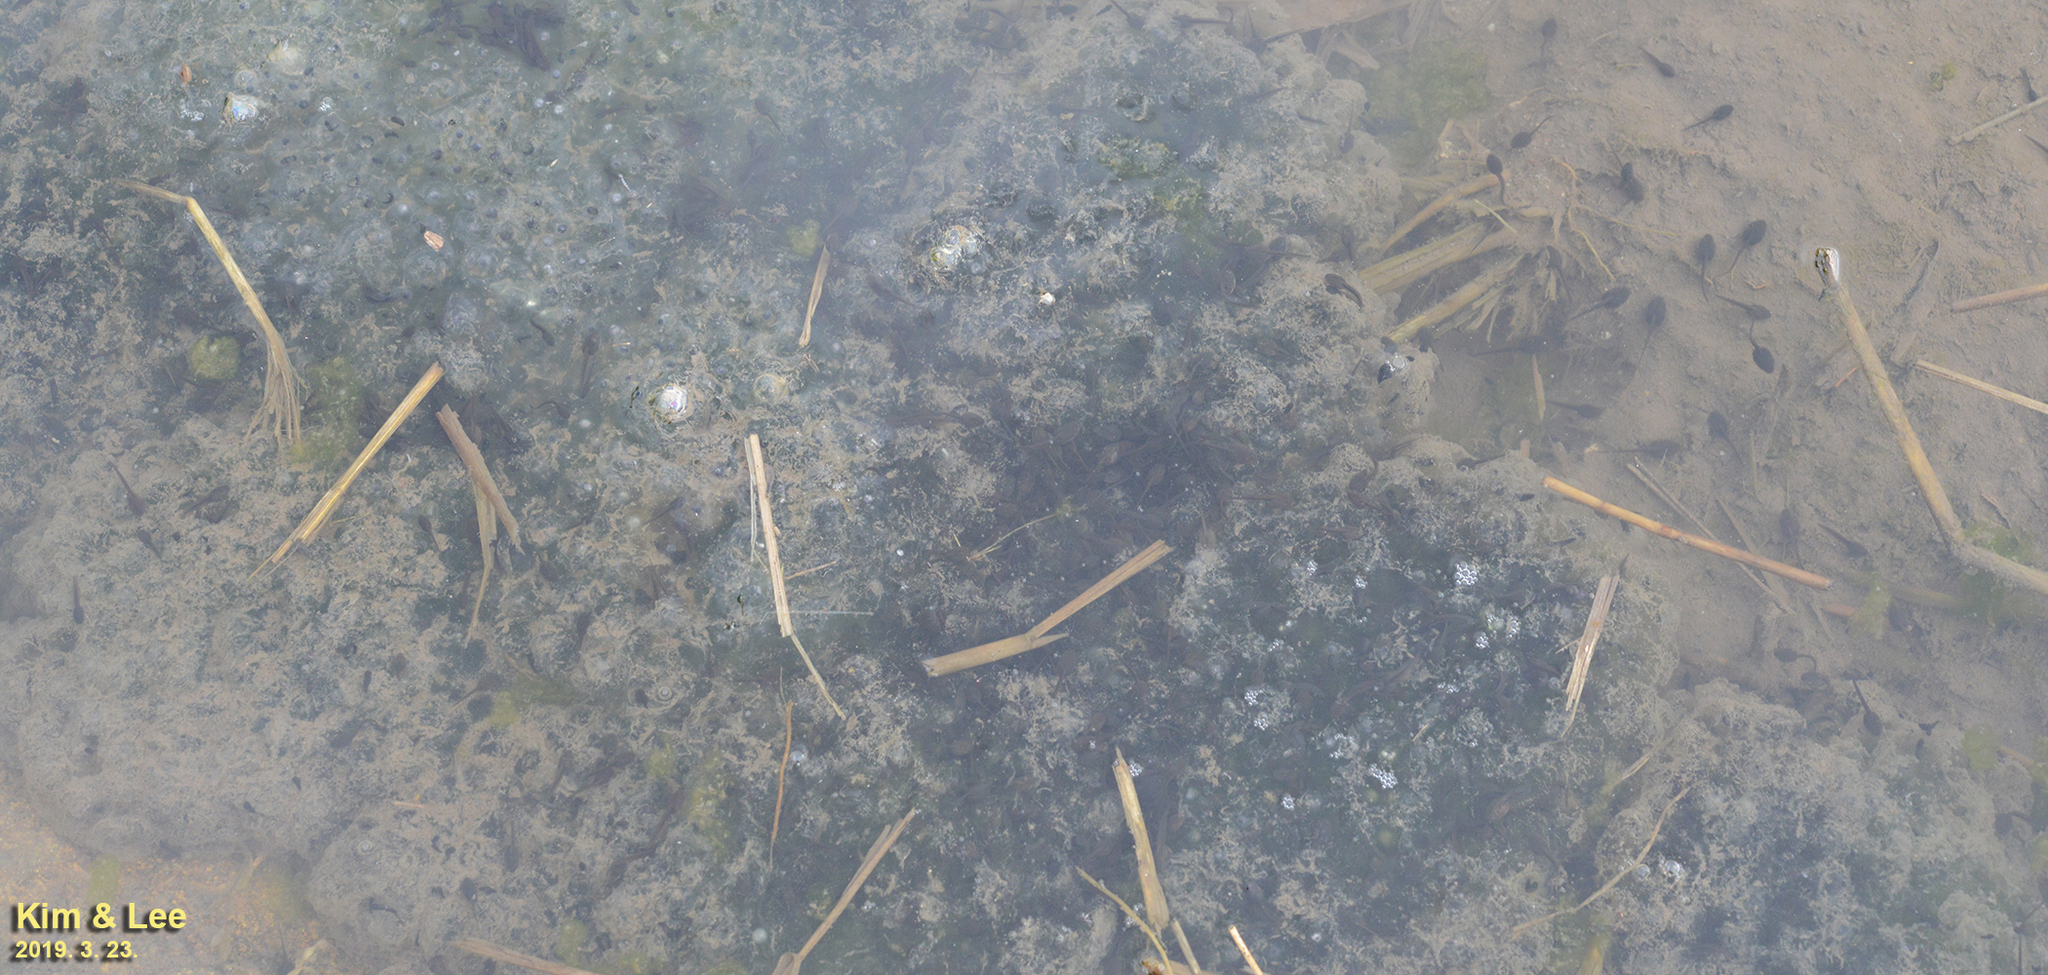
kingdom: Animalia
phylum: Chordata
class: Amphibia
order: Anura
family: Ranidae
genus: Rana
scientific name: Rana uenoi
